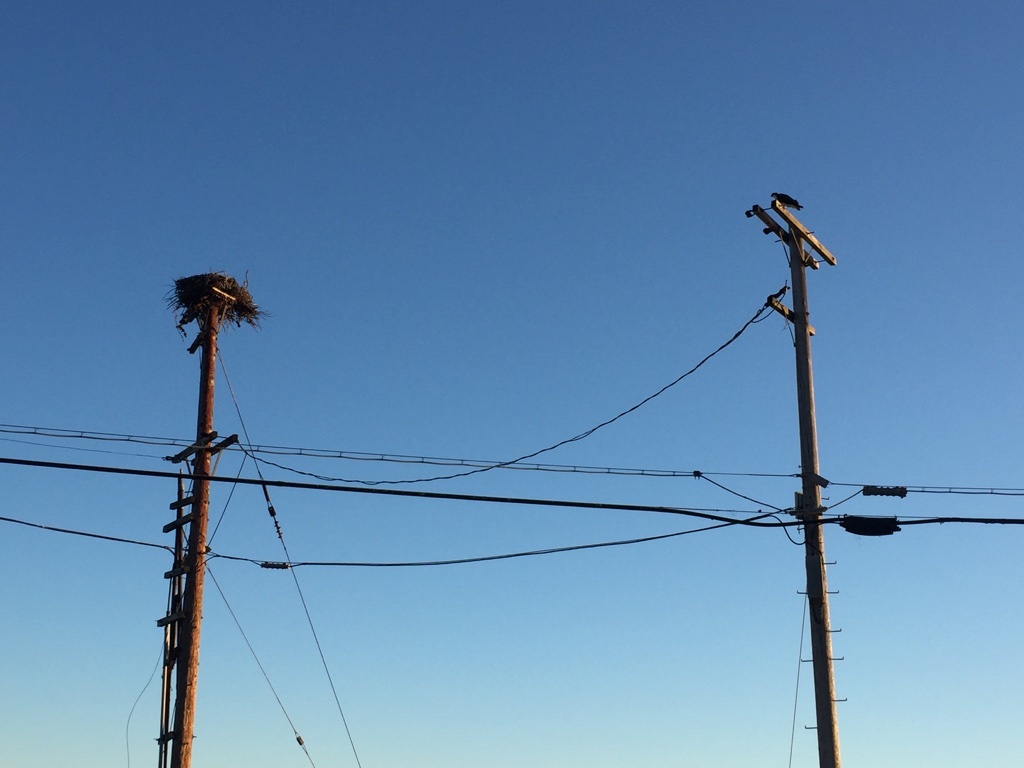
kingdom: Animalia
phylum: Chordata
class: Aves
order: Accipitriformes
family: Pandionidae
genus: Pandion
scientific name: Pandion haliaetus
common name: Osprey
